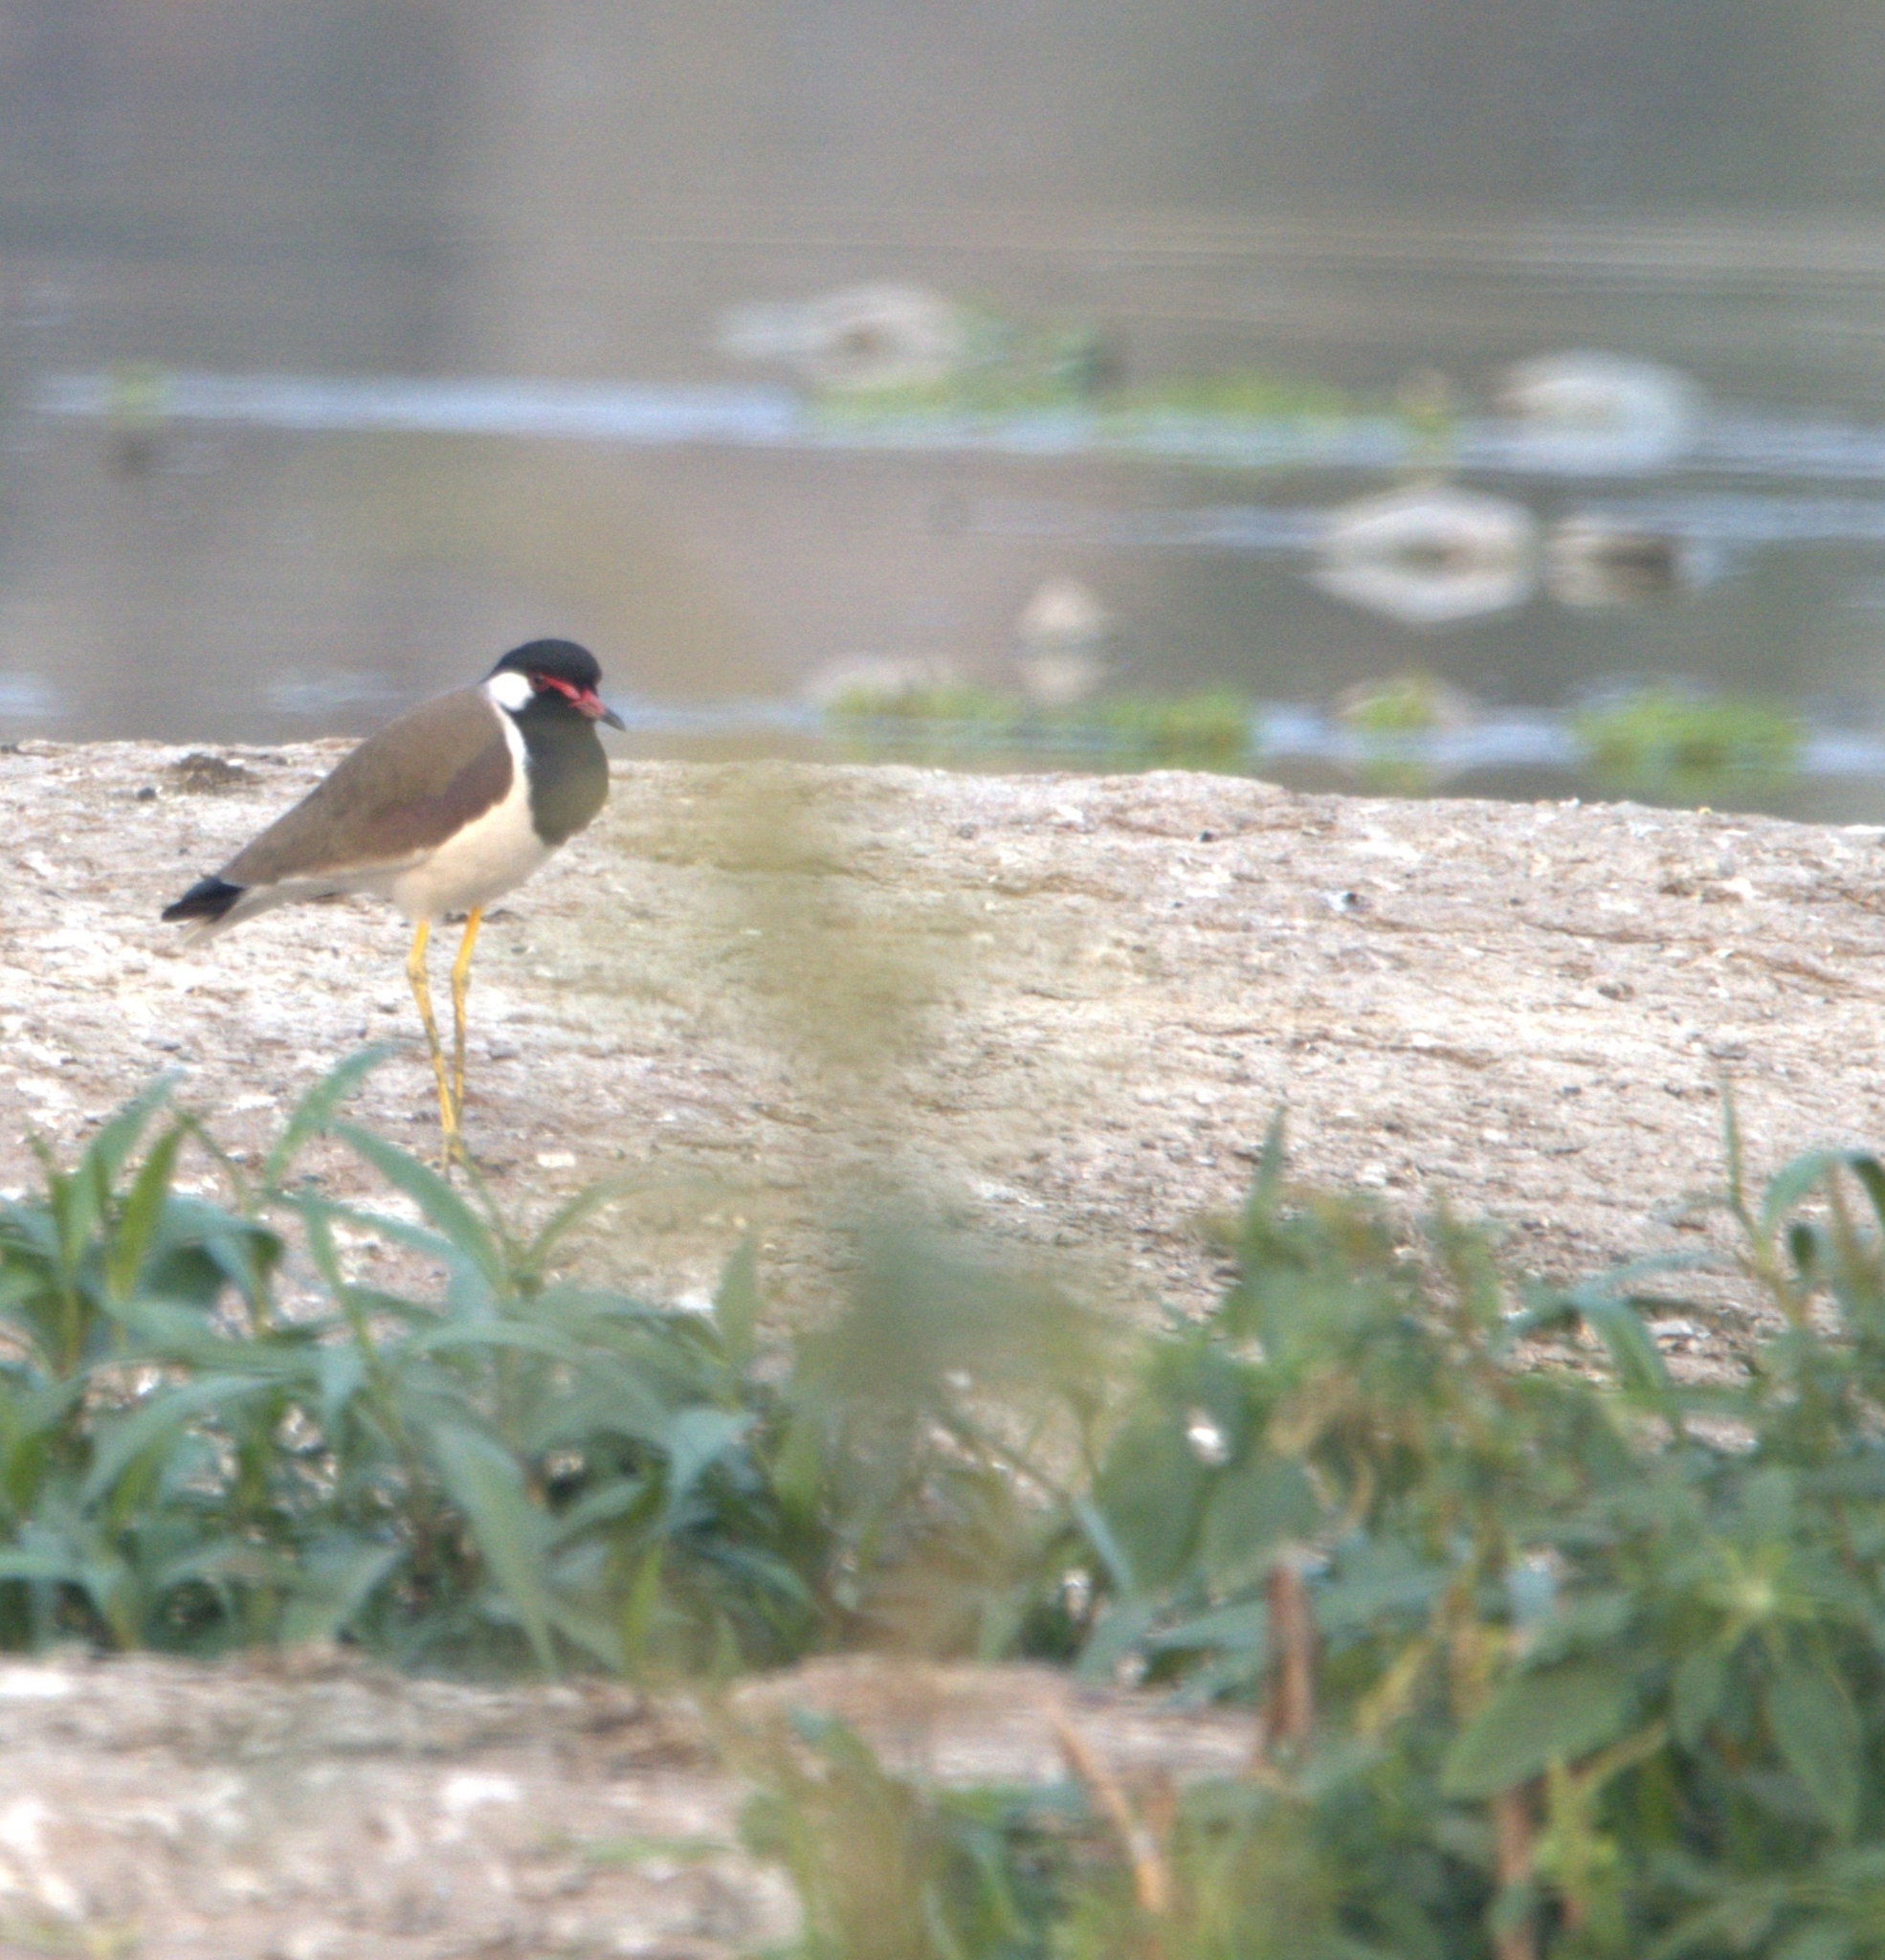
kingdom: Animalia
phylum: Chordata
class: Aves
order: Charadriiformes
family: Charadriidae
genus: Vanellus
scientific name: Vanellus indicus
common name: Red-wattled lapwing
